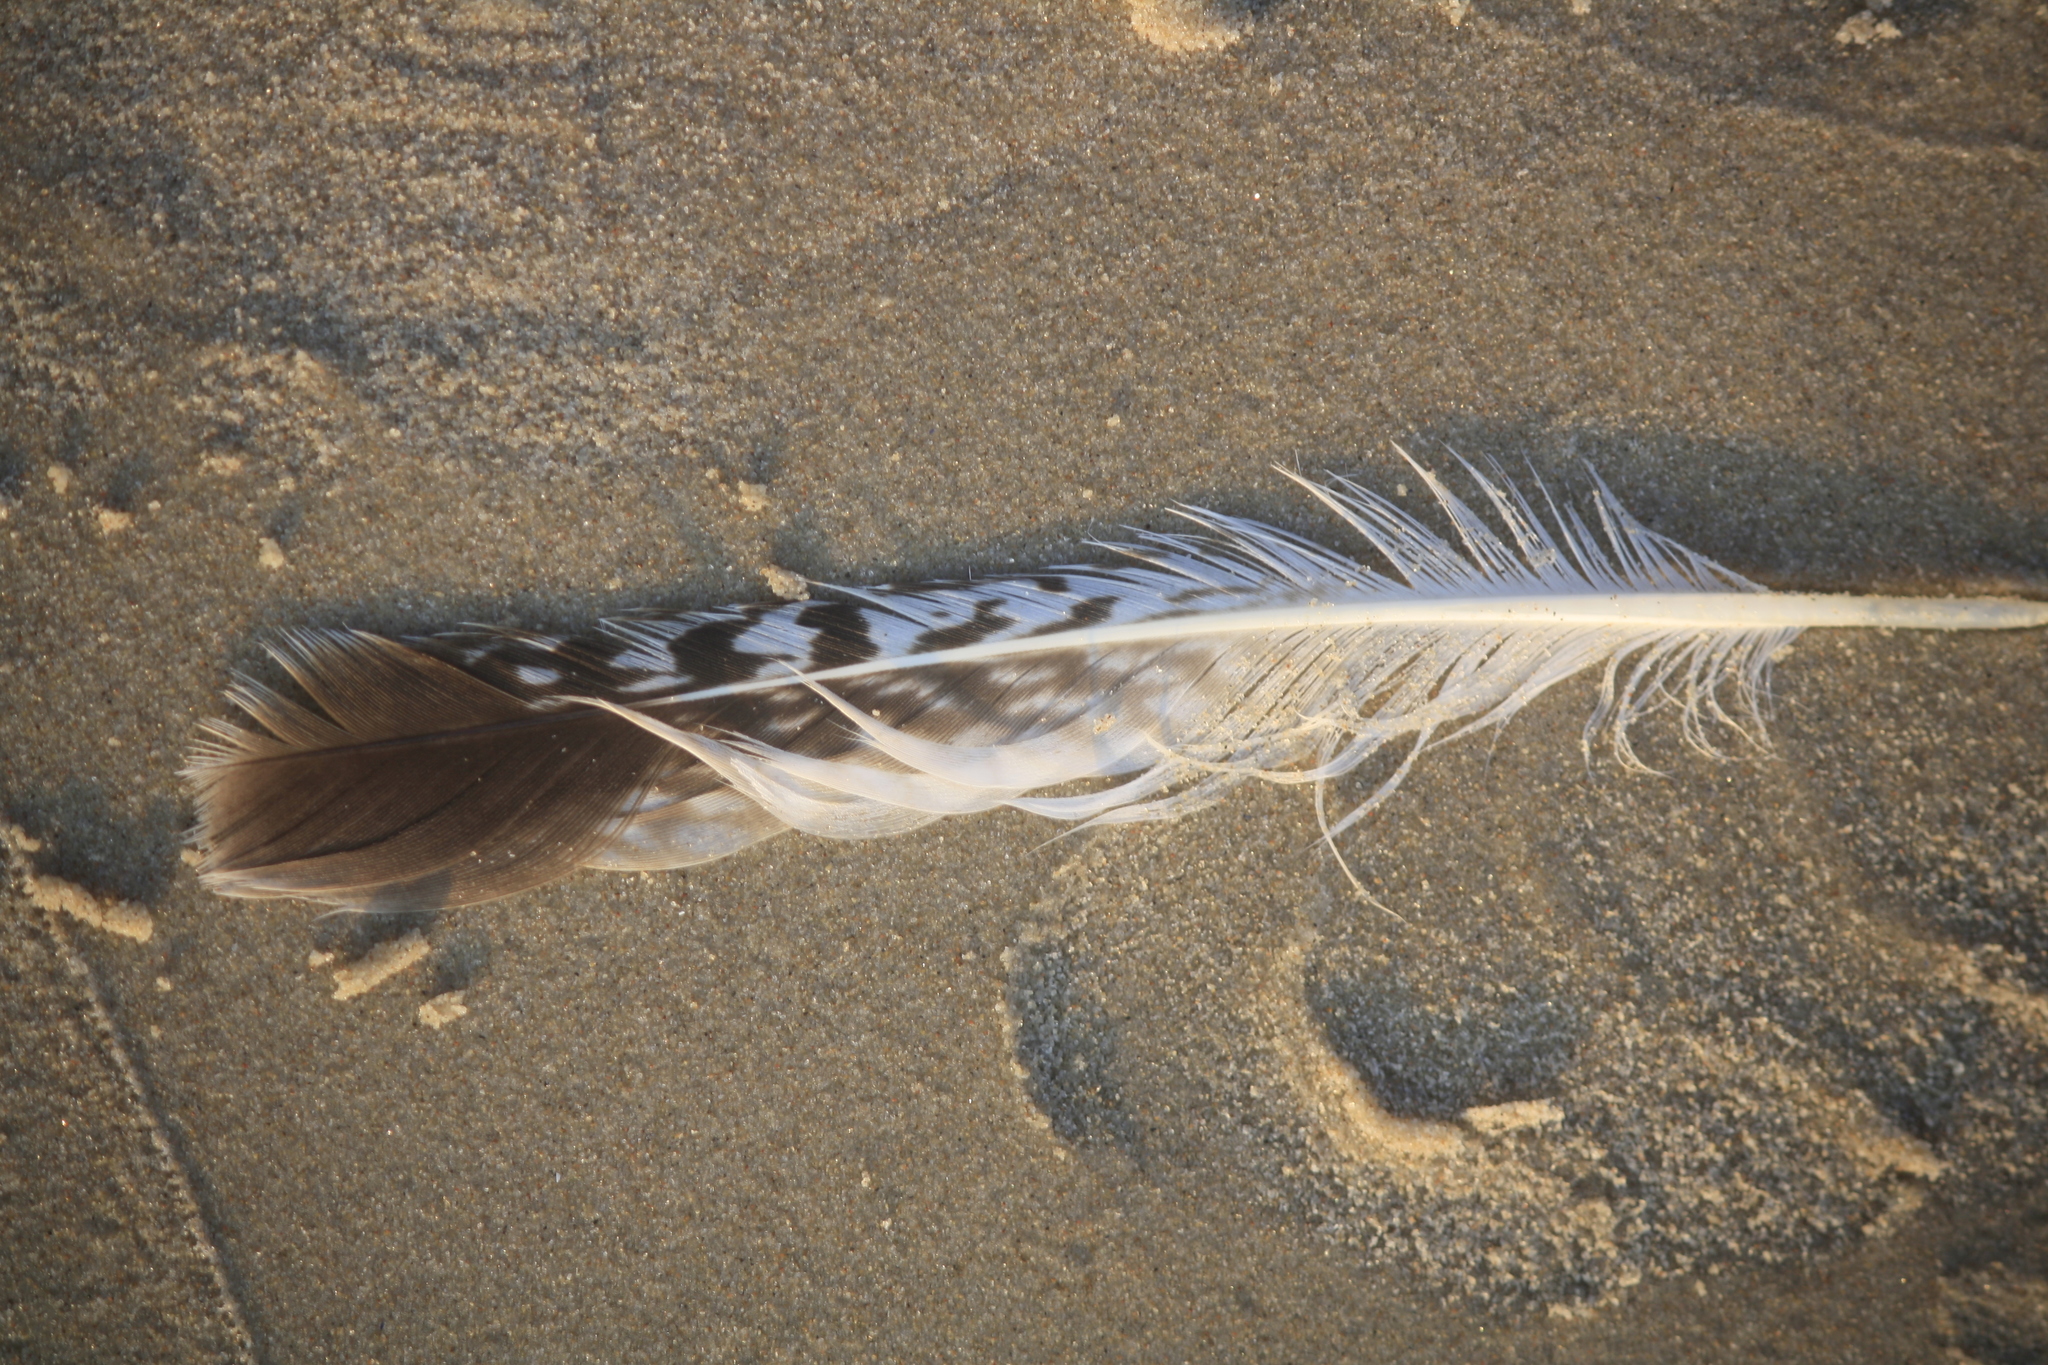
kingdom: Animalia
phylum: Chordata
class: Aves
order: Charadriiformes
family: Laridae
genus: Larus
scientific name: Larus
